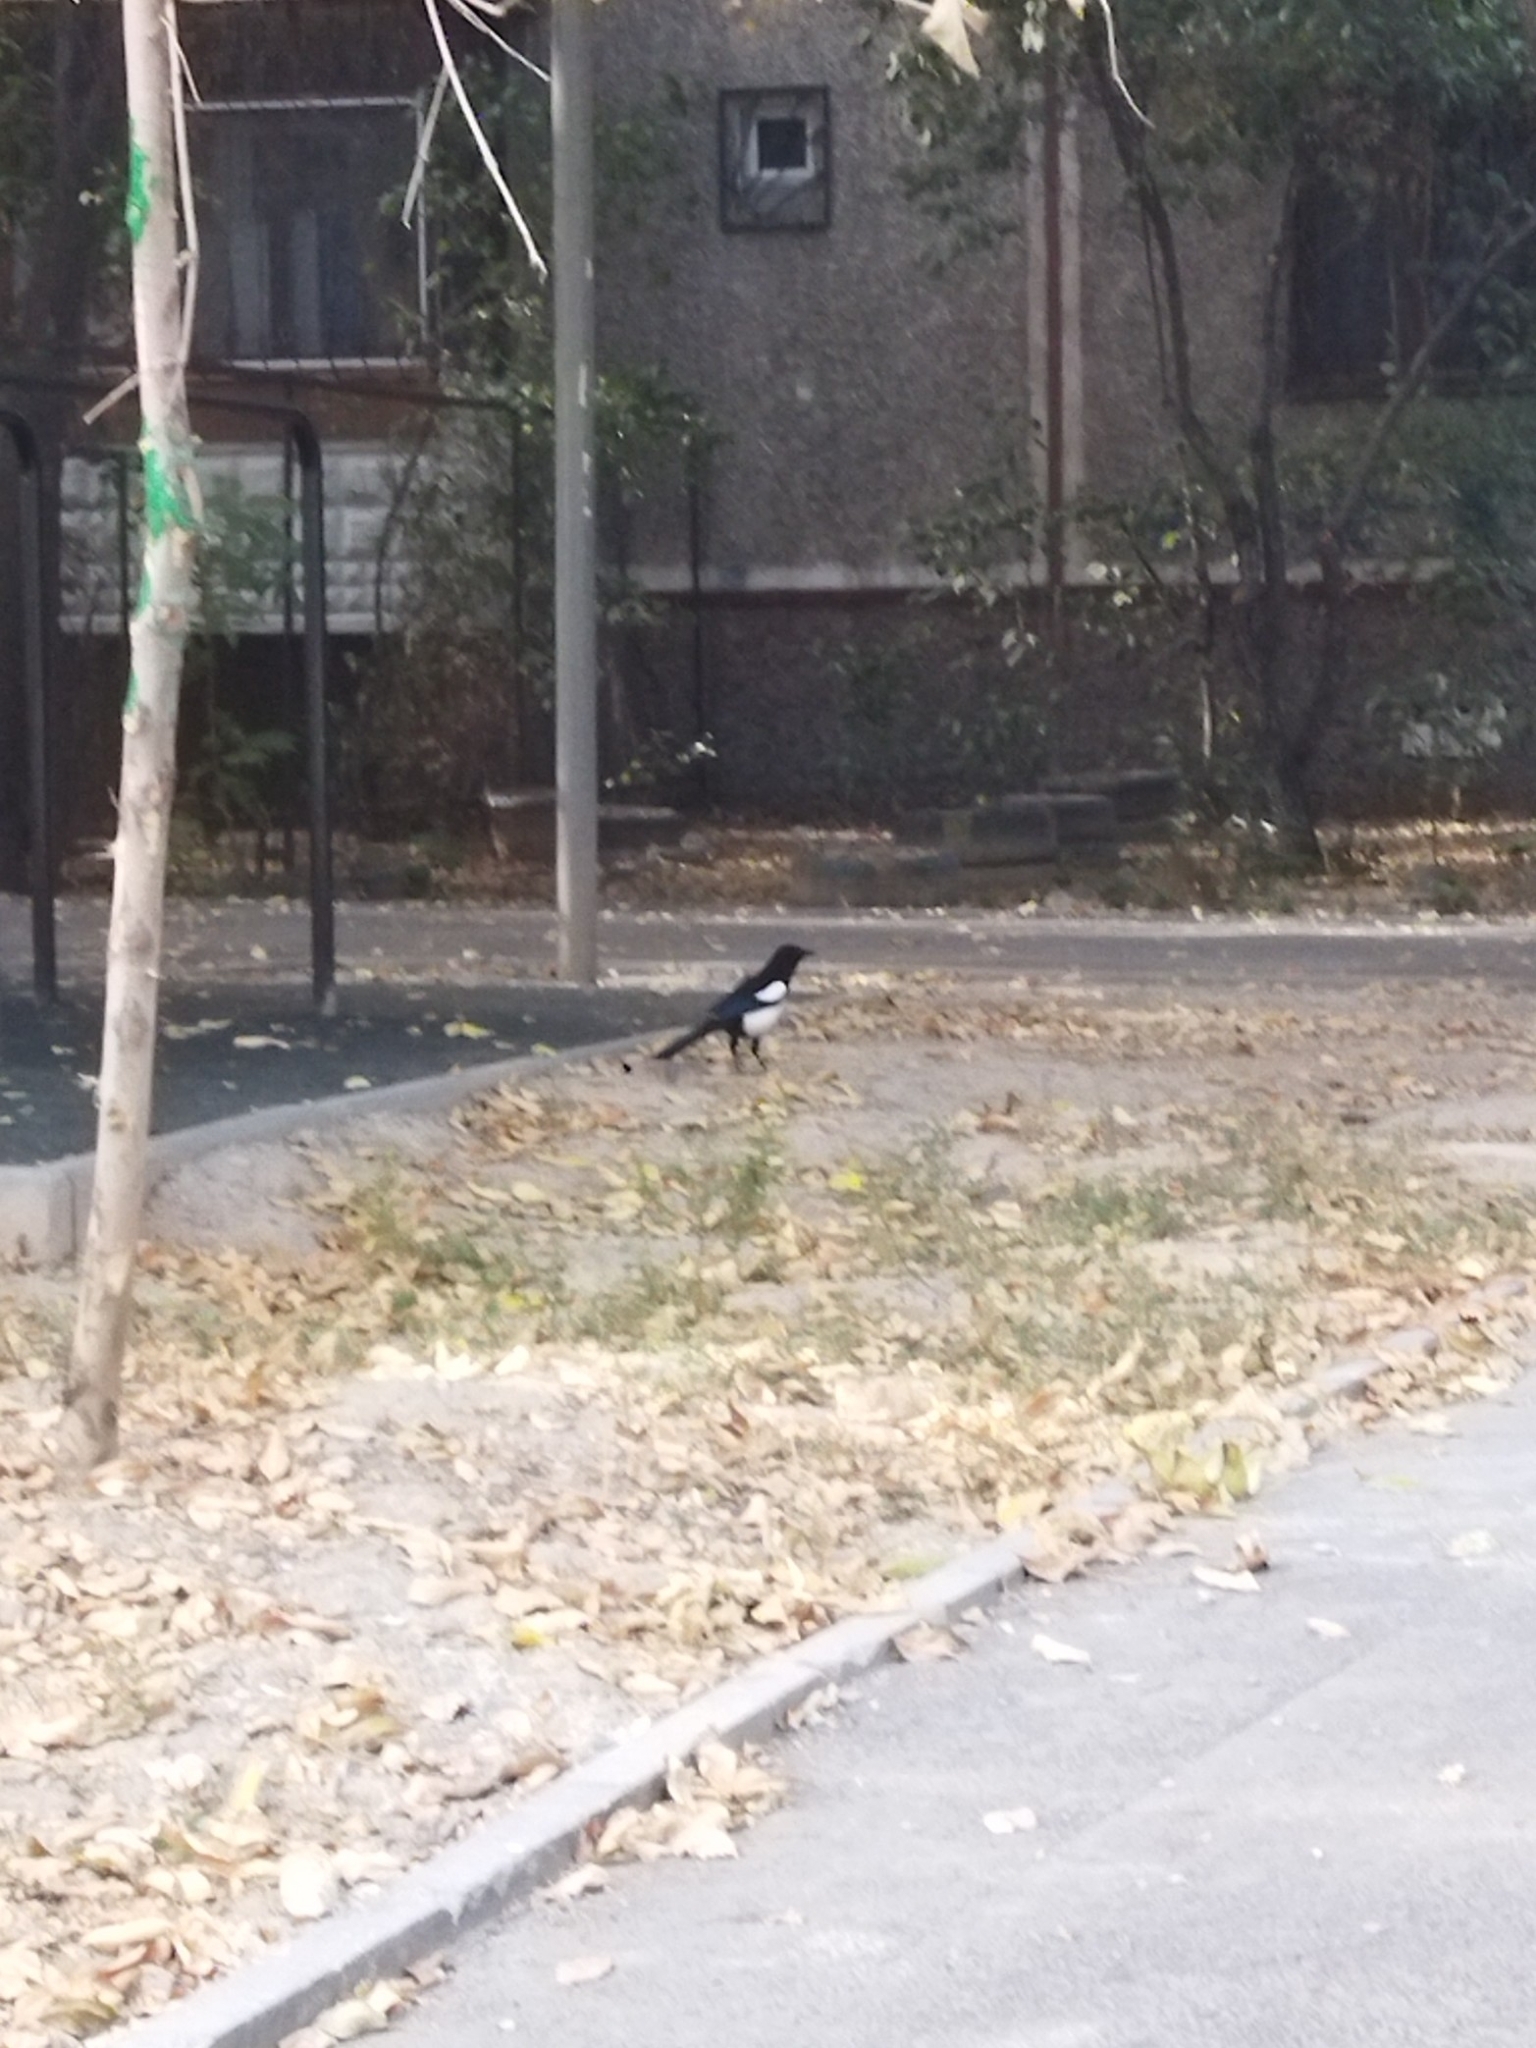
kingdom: Animalia
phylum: Chordata
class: Aves
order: Passeriformes
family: Corvidae
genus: Pica
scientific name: Pica pica
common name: Eurasian magpie
